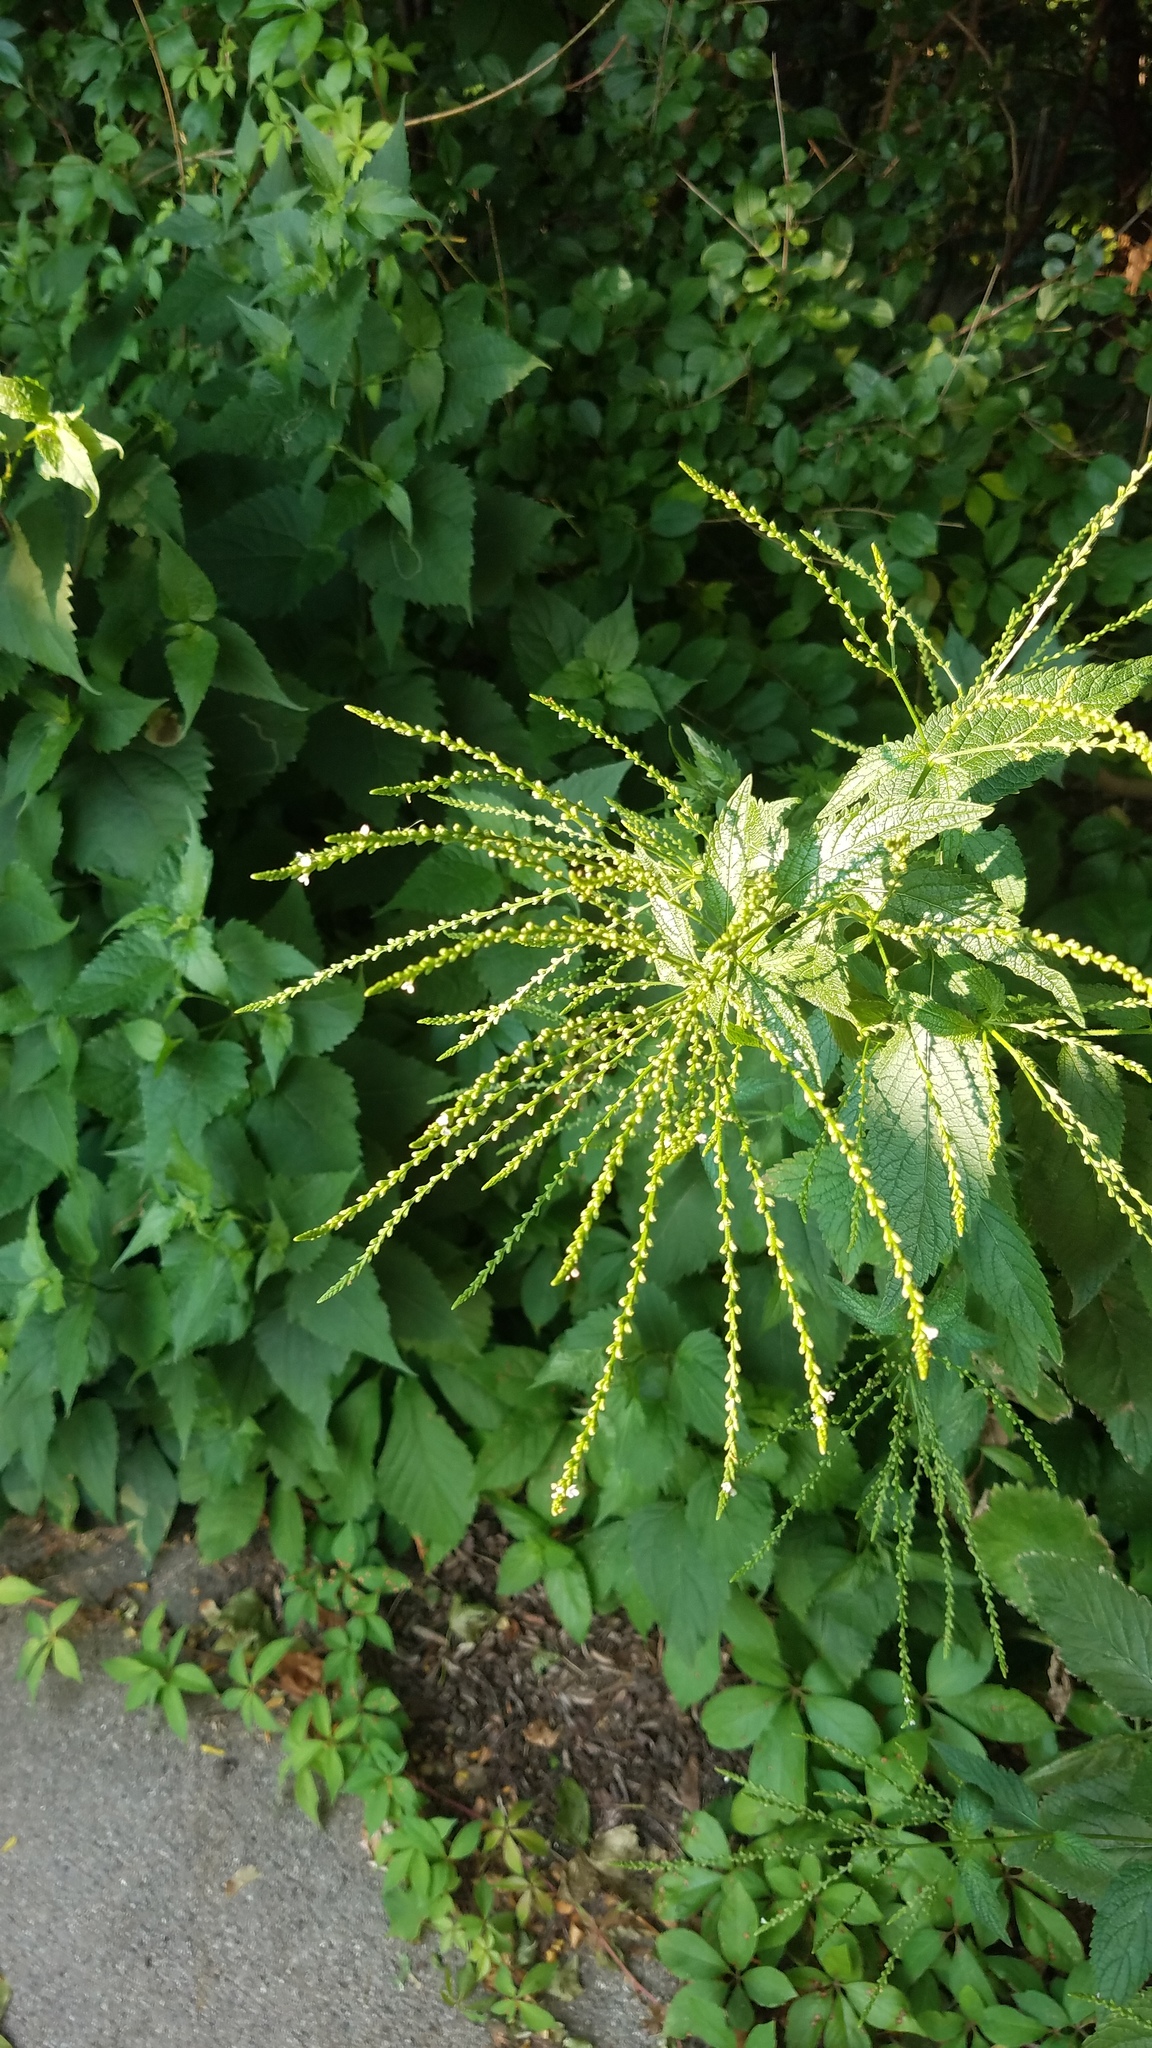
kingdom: Plantae
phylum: Tracheophyta
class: Magnoliopsida
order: Lamiales
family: Verbenaceae
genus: Verbena
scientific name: Verbena urticifolia
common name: Nettle-leaved vervain
